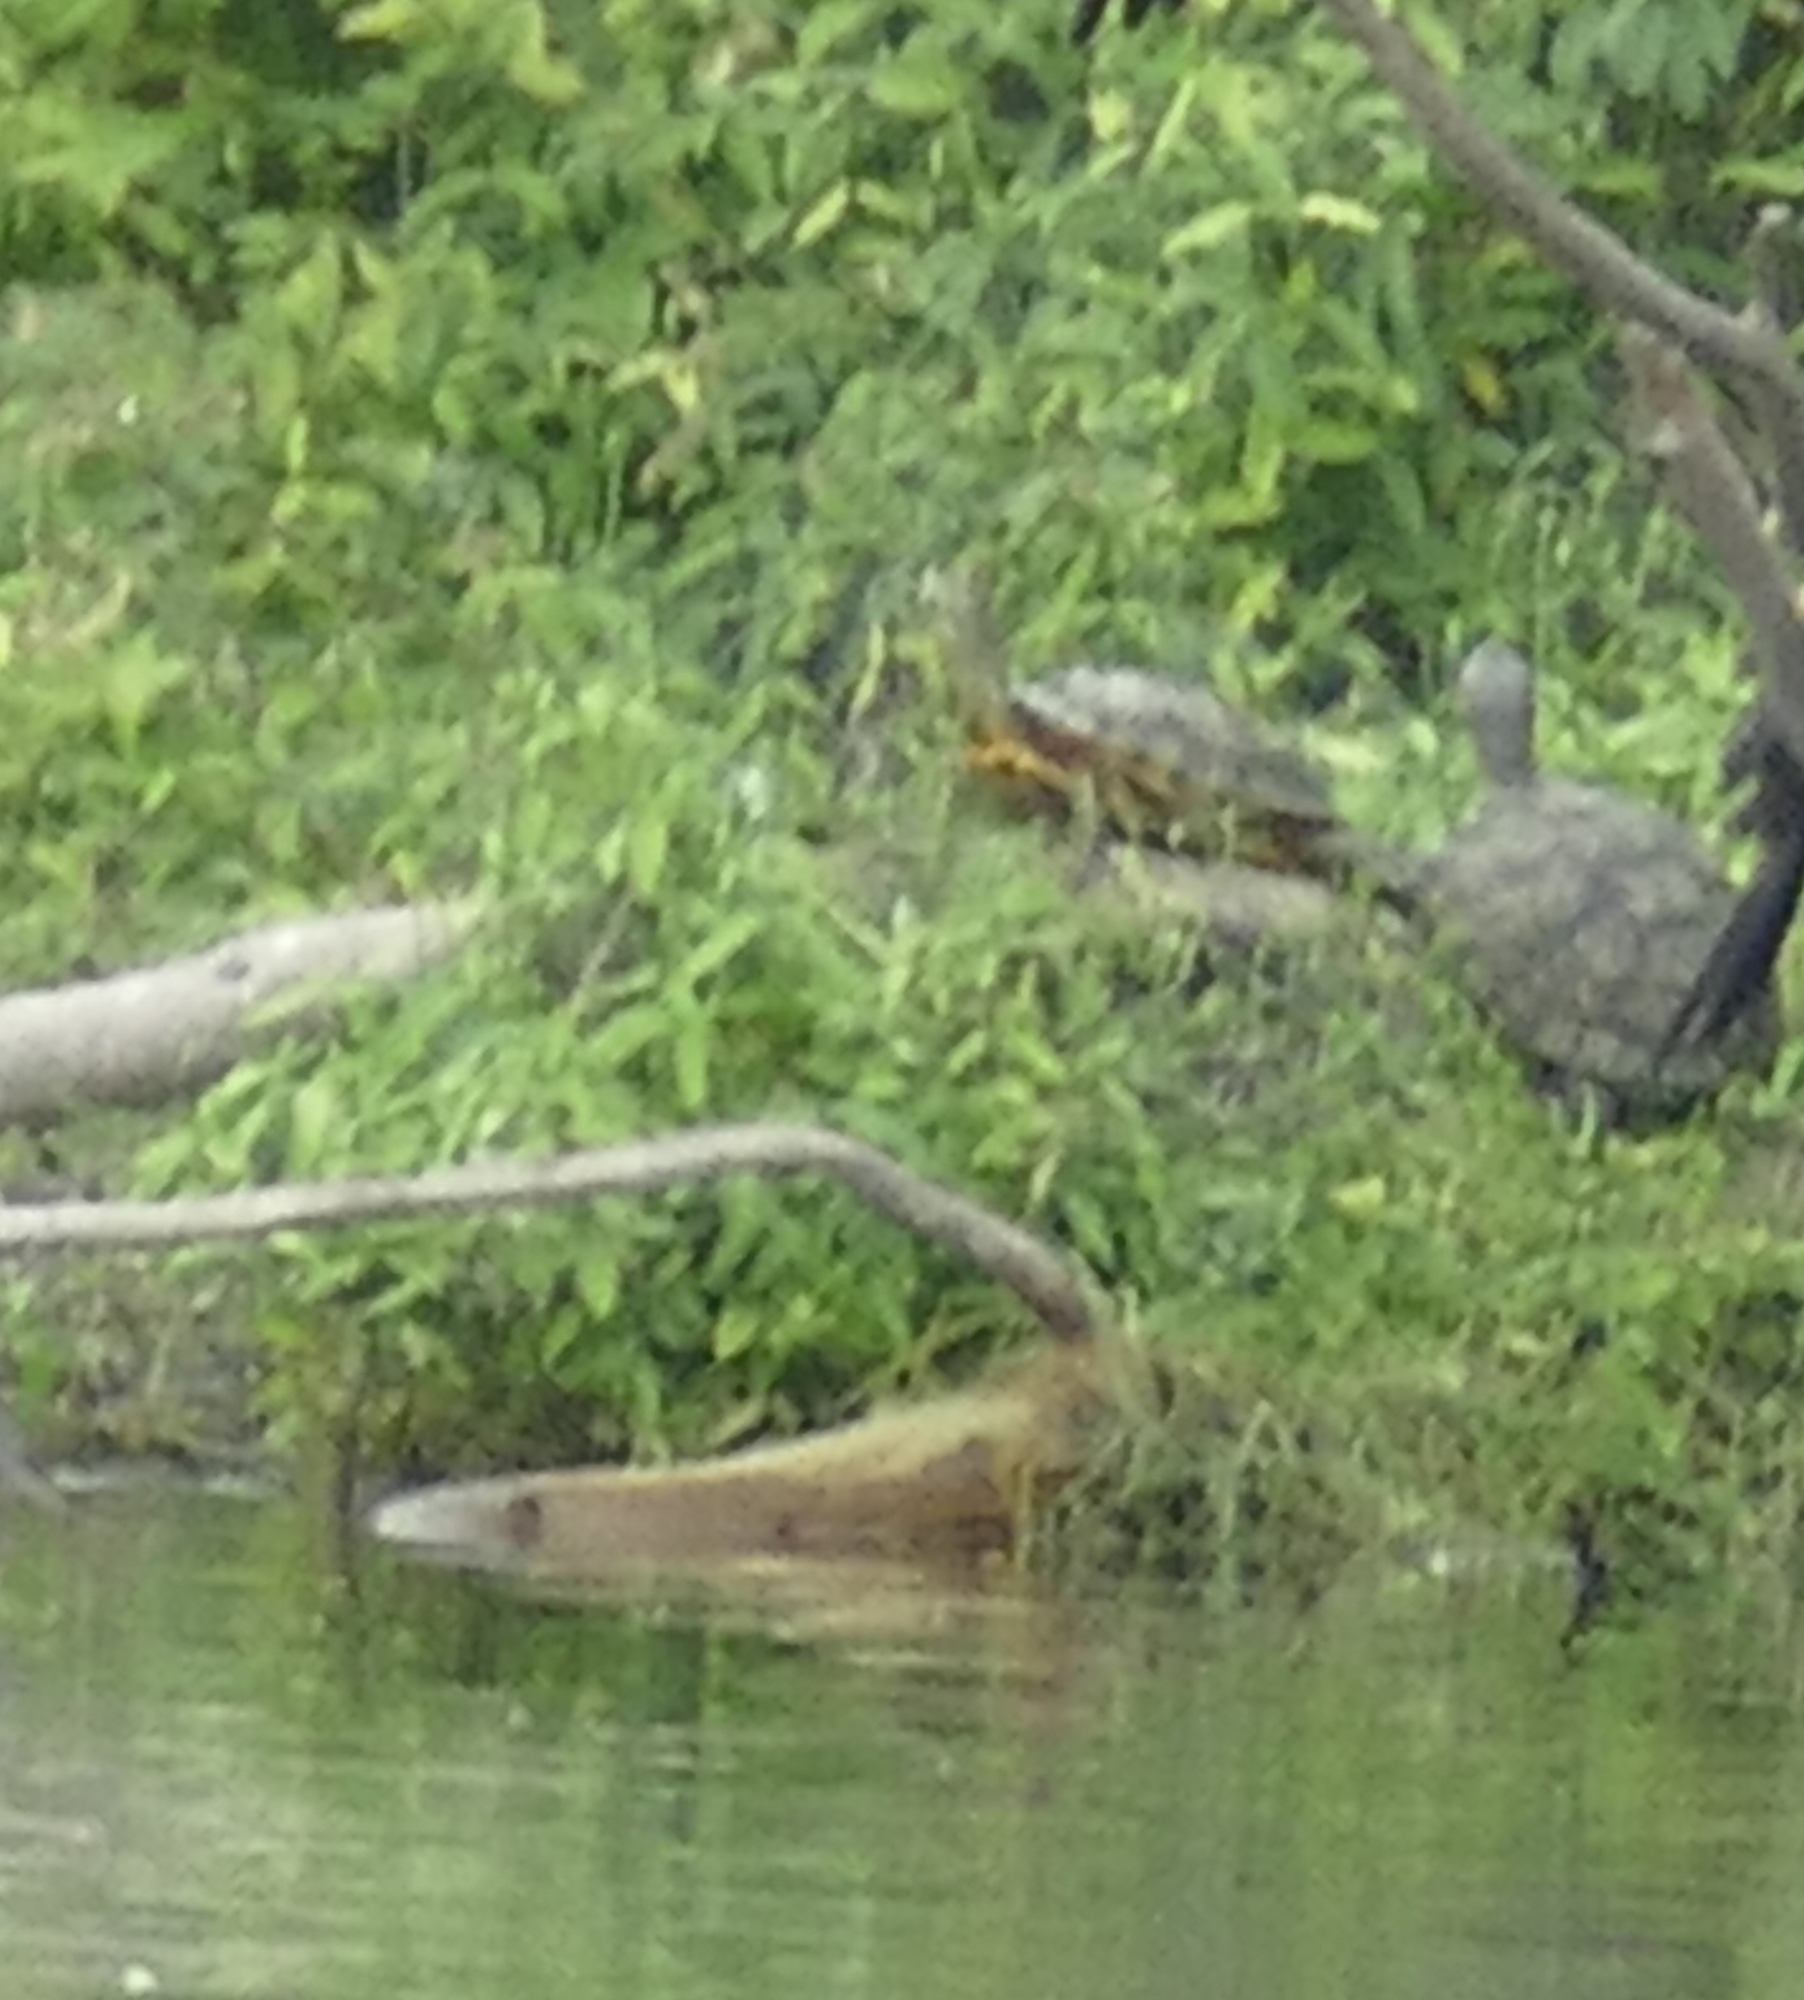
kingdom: Animalia
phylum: Chordata
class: Testudines
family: Emydidae
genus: Trachemys
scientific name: Trachemys scripta
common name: Slider
